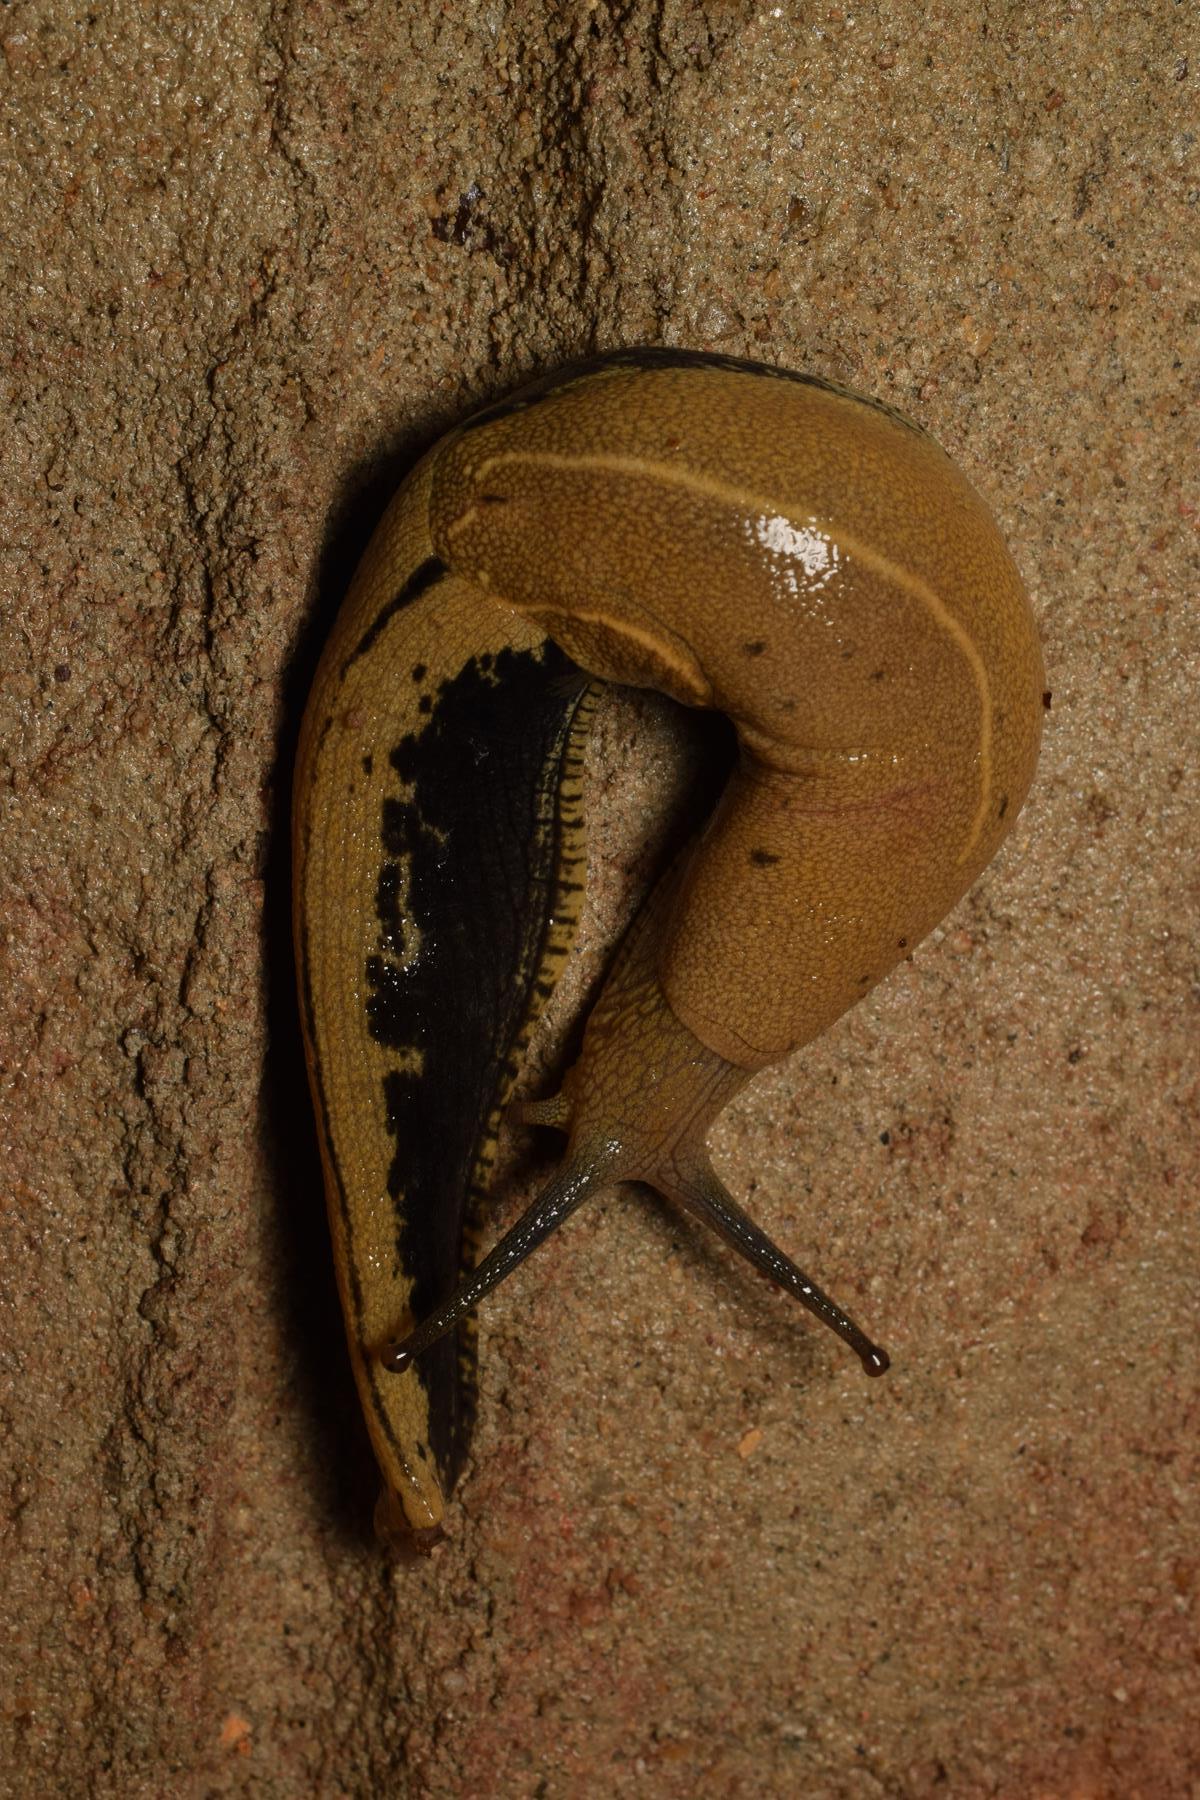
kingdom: Animalia
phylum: Mollusca
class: Gastropoda
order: Stylommatophora
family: Ariophantidae
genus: Mariaella
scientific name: Mariaella dussumieri
